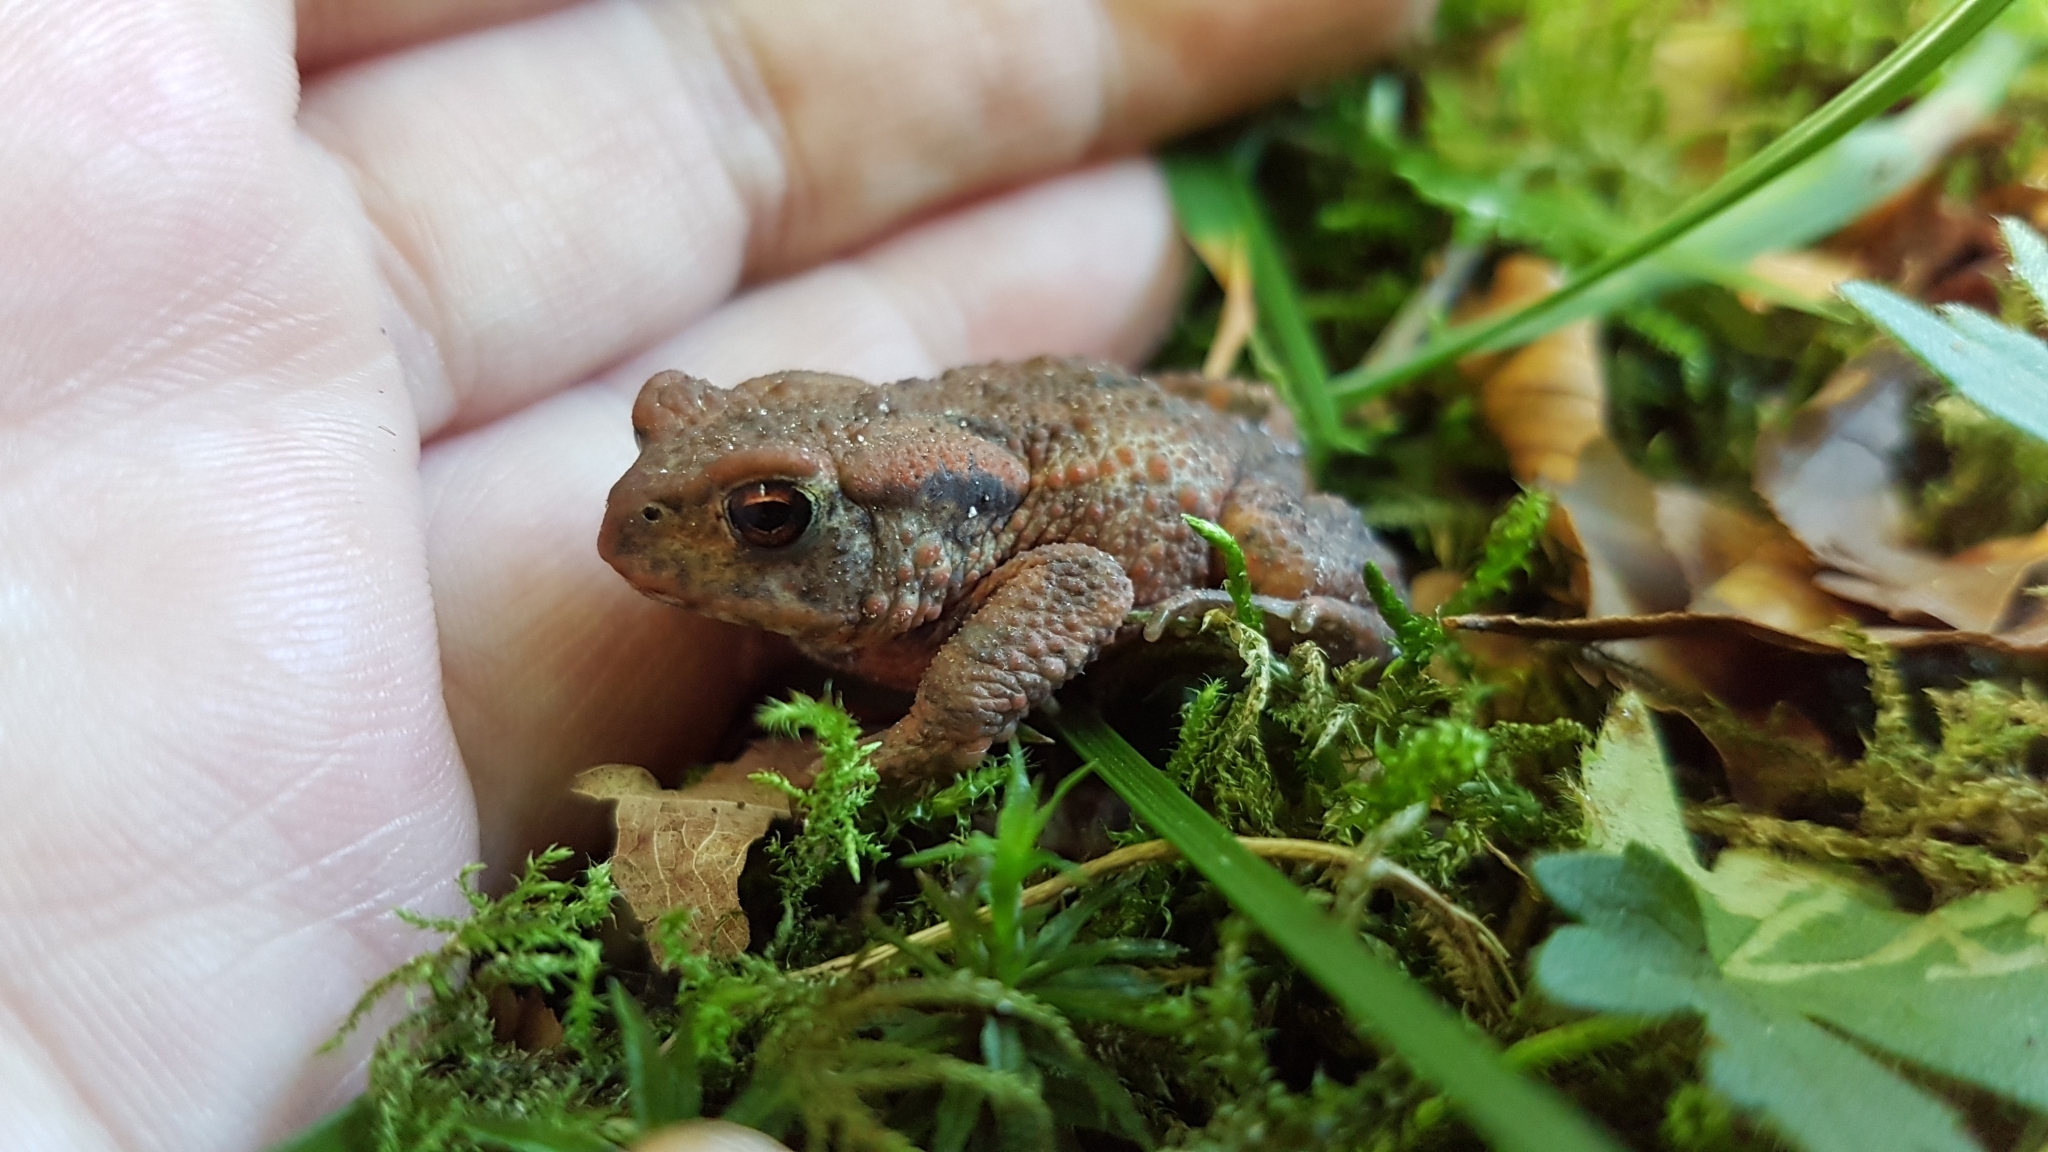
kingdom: Animalia
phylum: Chordata
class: Amphibia
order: Anura
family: Bufonidae
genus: Bufo
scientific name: Bufo bufo
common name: Common toad
